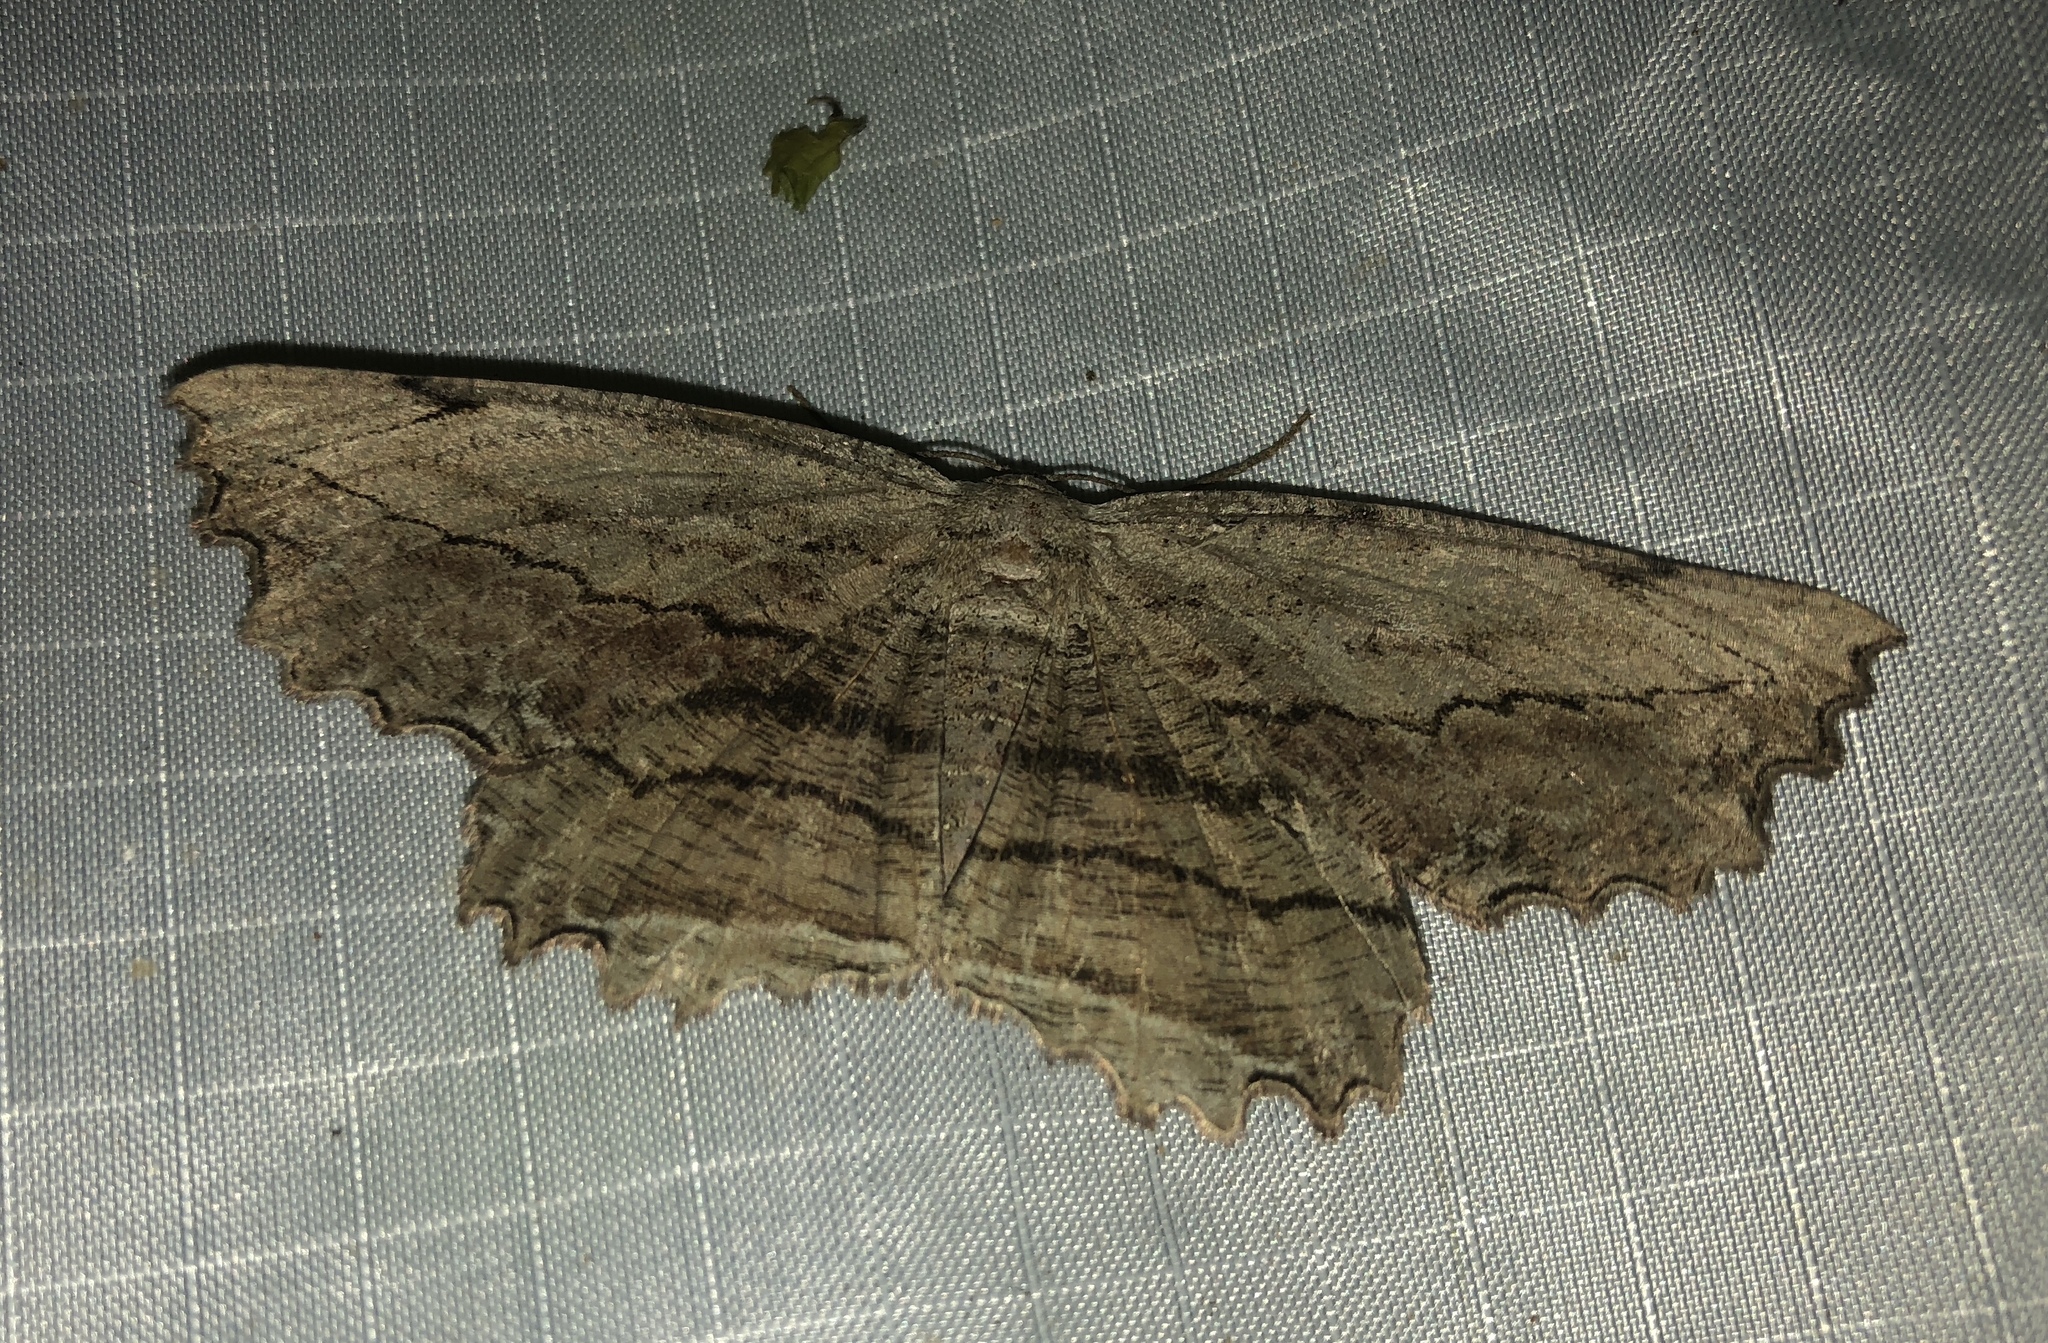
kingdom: Animalia
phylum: Arthropoda
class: Insecta
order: Lepidoptera
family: Geometridae
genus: Lytrosis
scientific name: Lytrosis unitaria
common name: Common lytrosis
